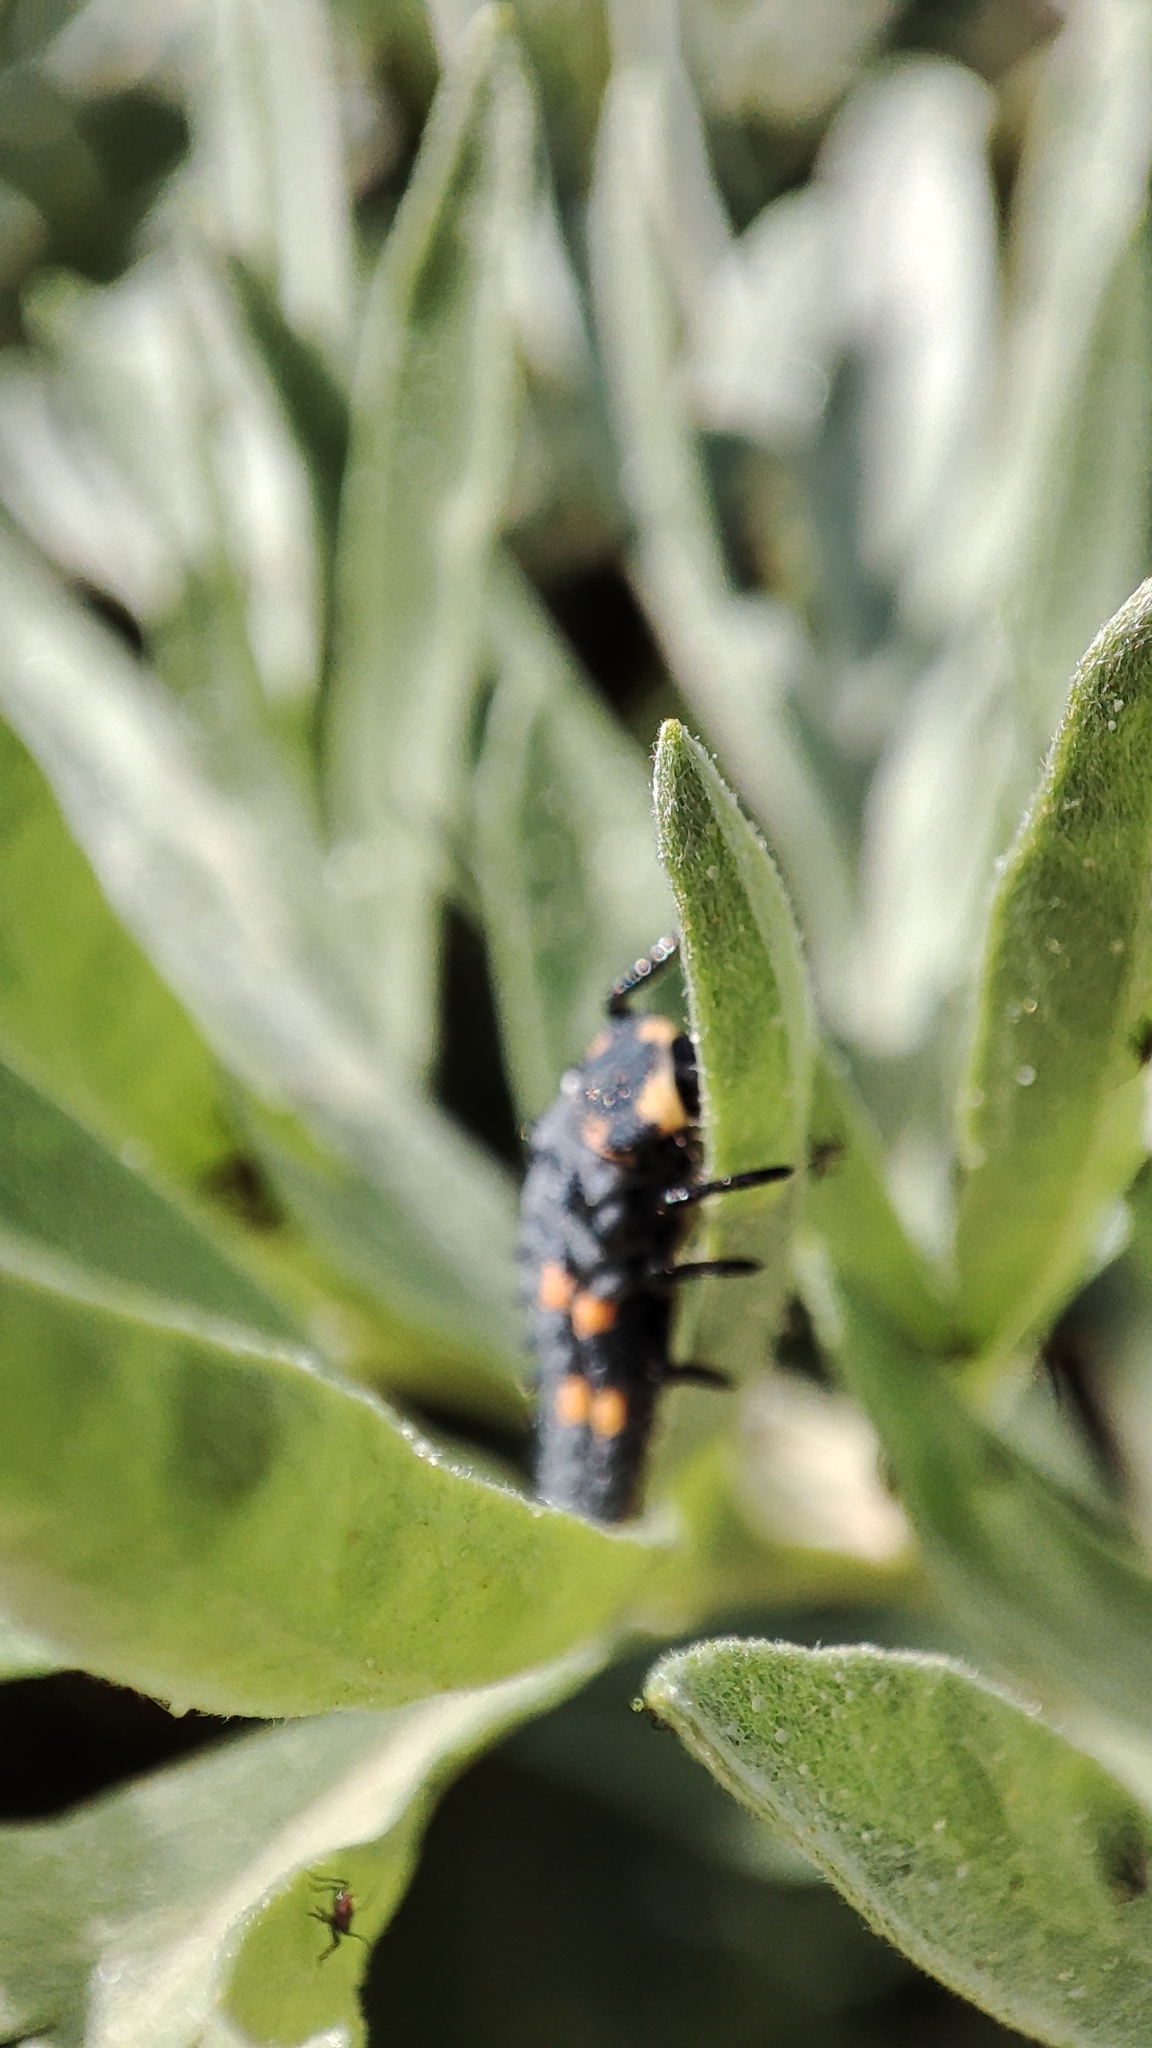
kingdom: Animalia
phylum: Arthropoda
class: Insecta
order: Coleoptera
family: Coccinellidae
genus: Coccinella
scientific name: Coccinella septempunctata
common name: Sevenspotted lady beetle
